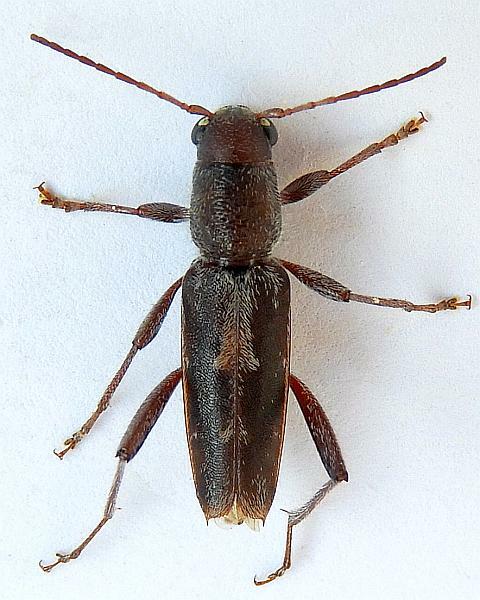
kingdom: Animalia
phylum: Arthropoda
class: Insecta
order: Coleoptera
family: Cerambycidae
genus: Xylotrechus
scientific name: Xylotrechus sagittatus
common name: Arrowhead borer
